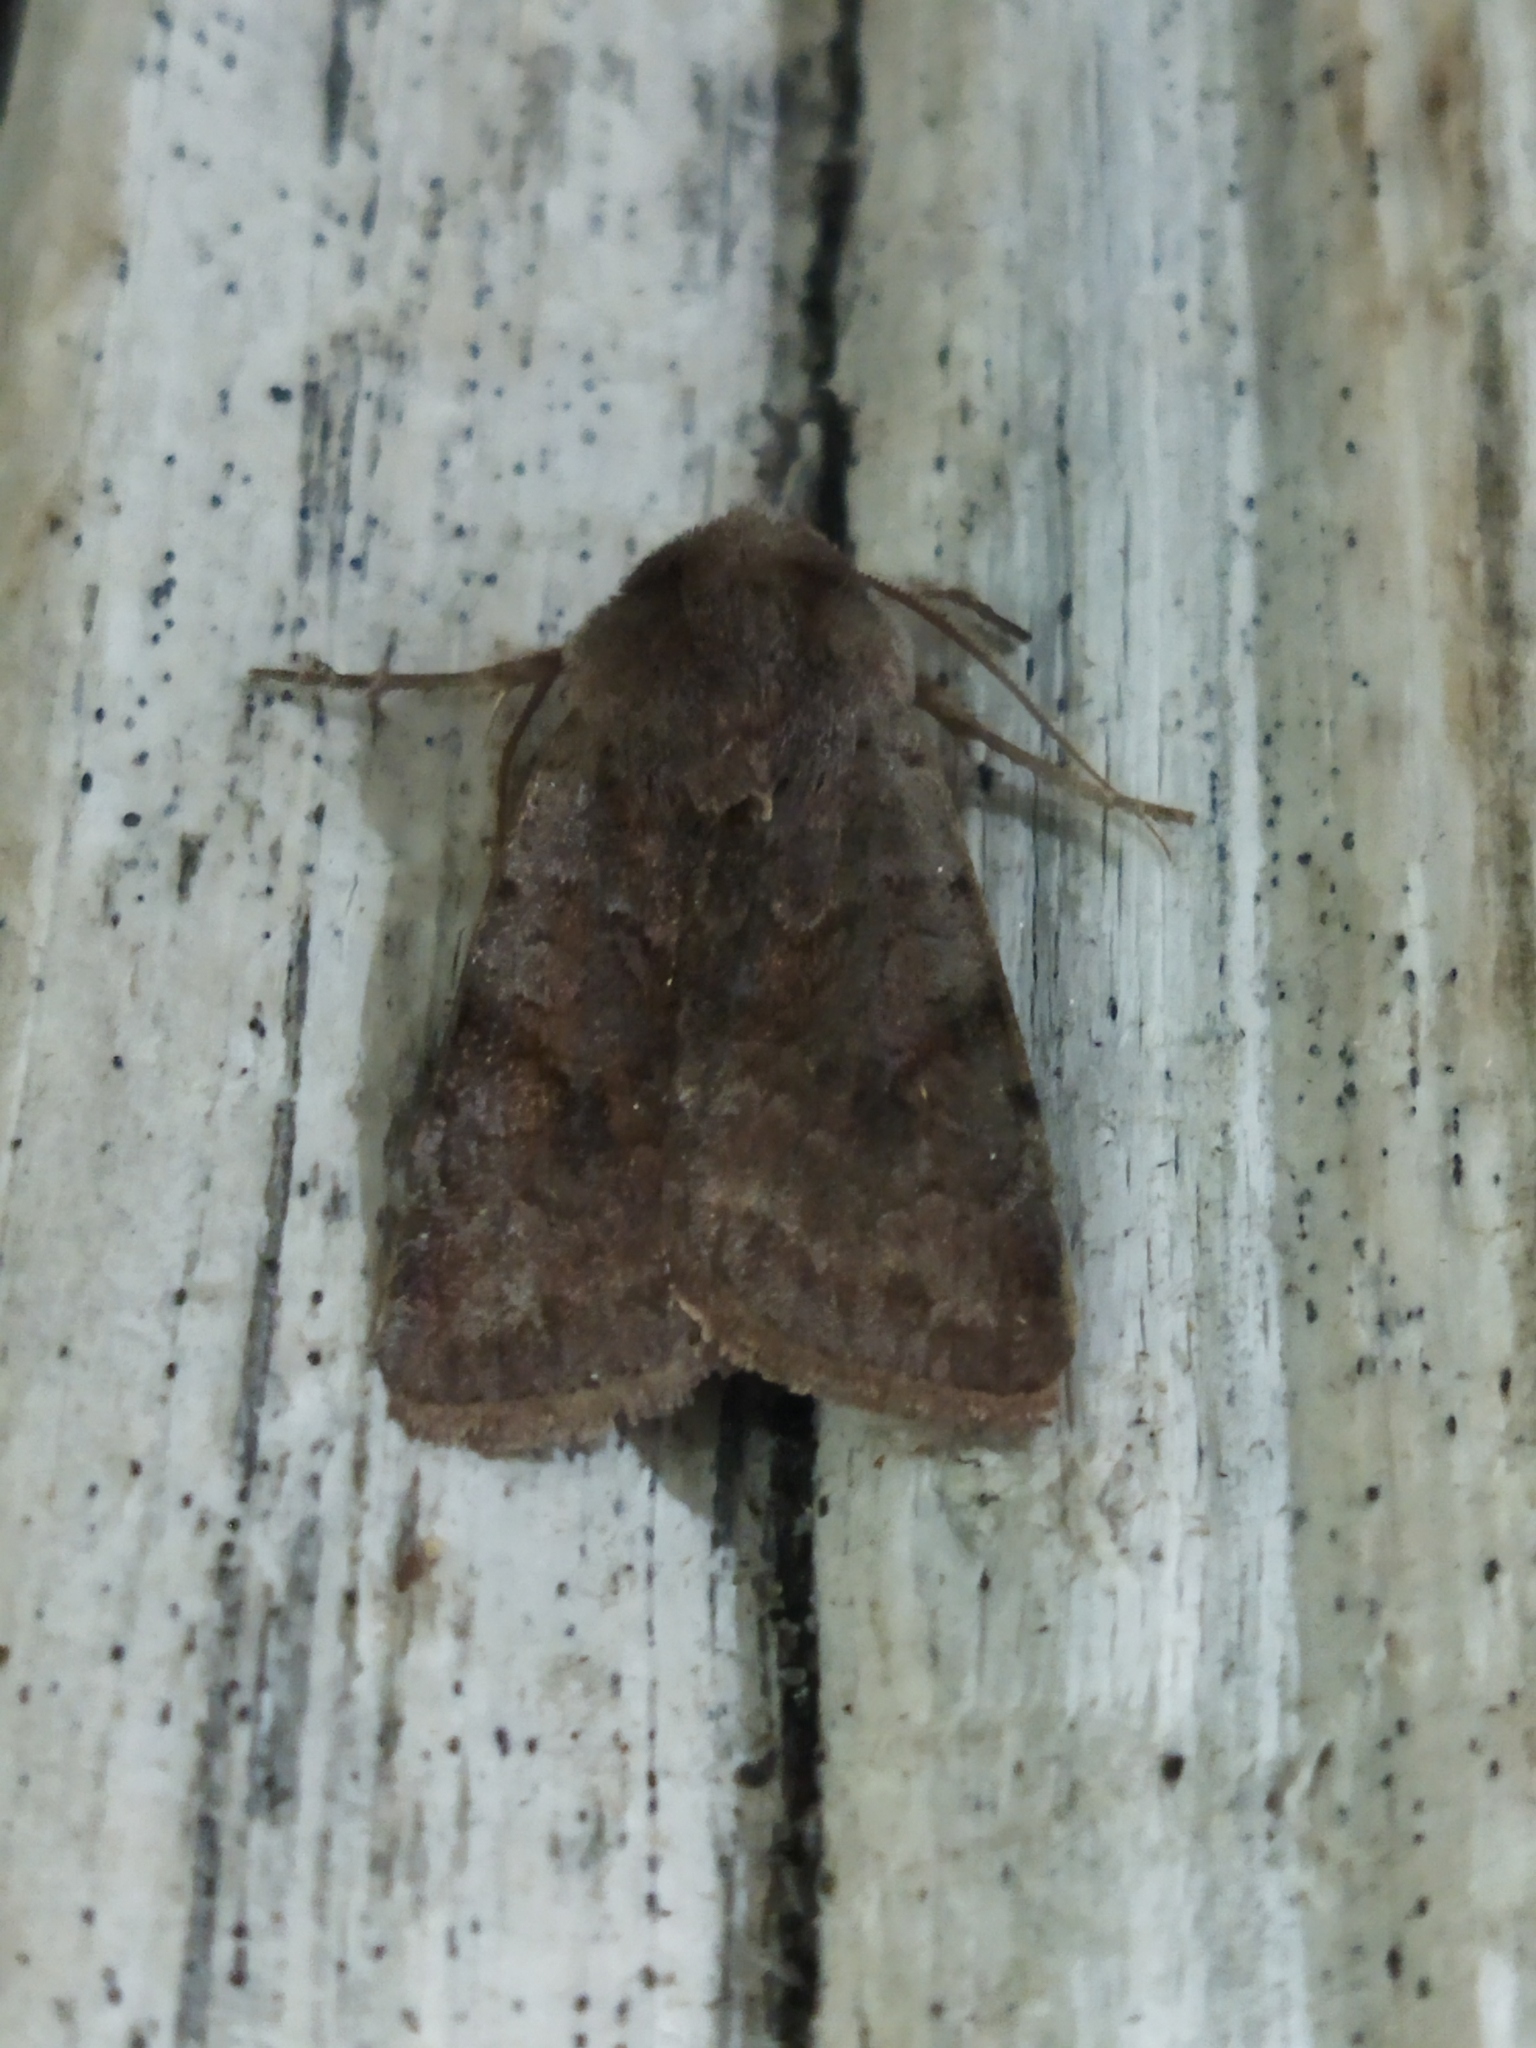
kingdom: Animalia
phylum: Arthropoda
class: Insecta
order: Lepidoptera
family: Noctuidae
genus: Cerastis
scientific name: Cerastis rubricosa
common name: Red chestnut
